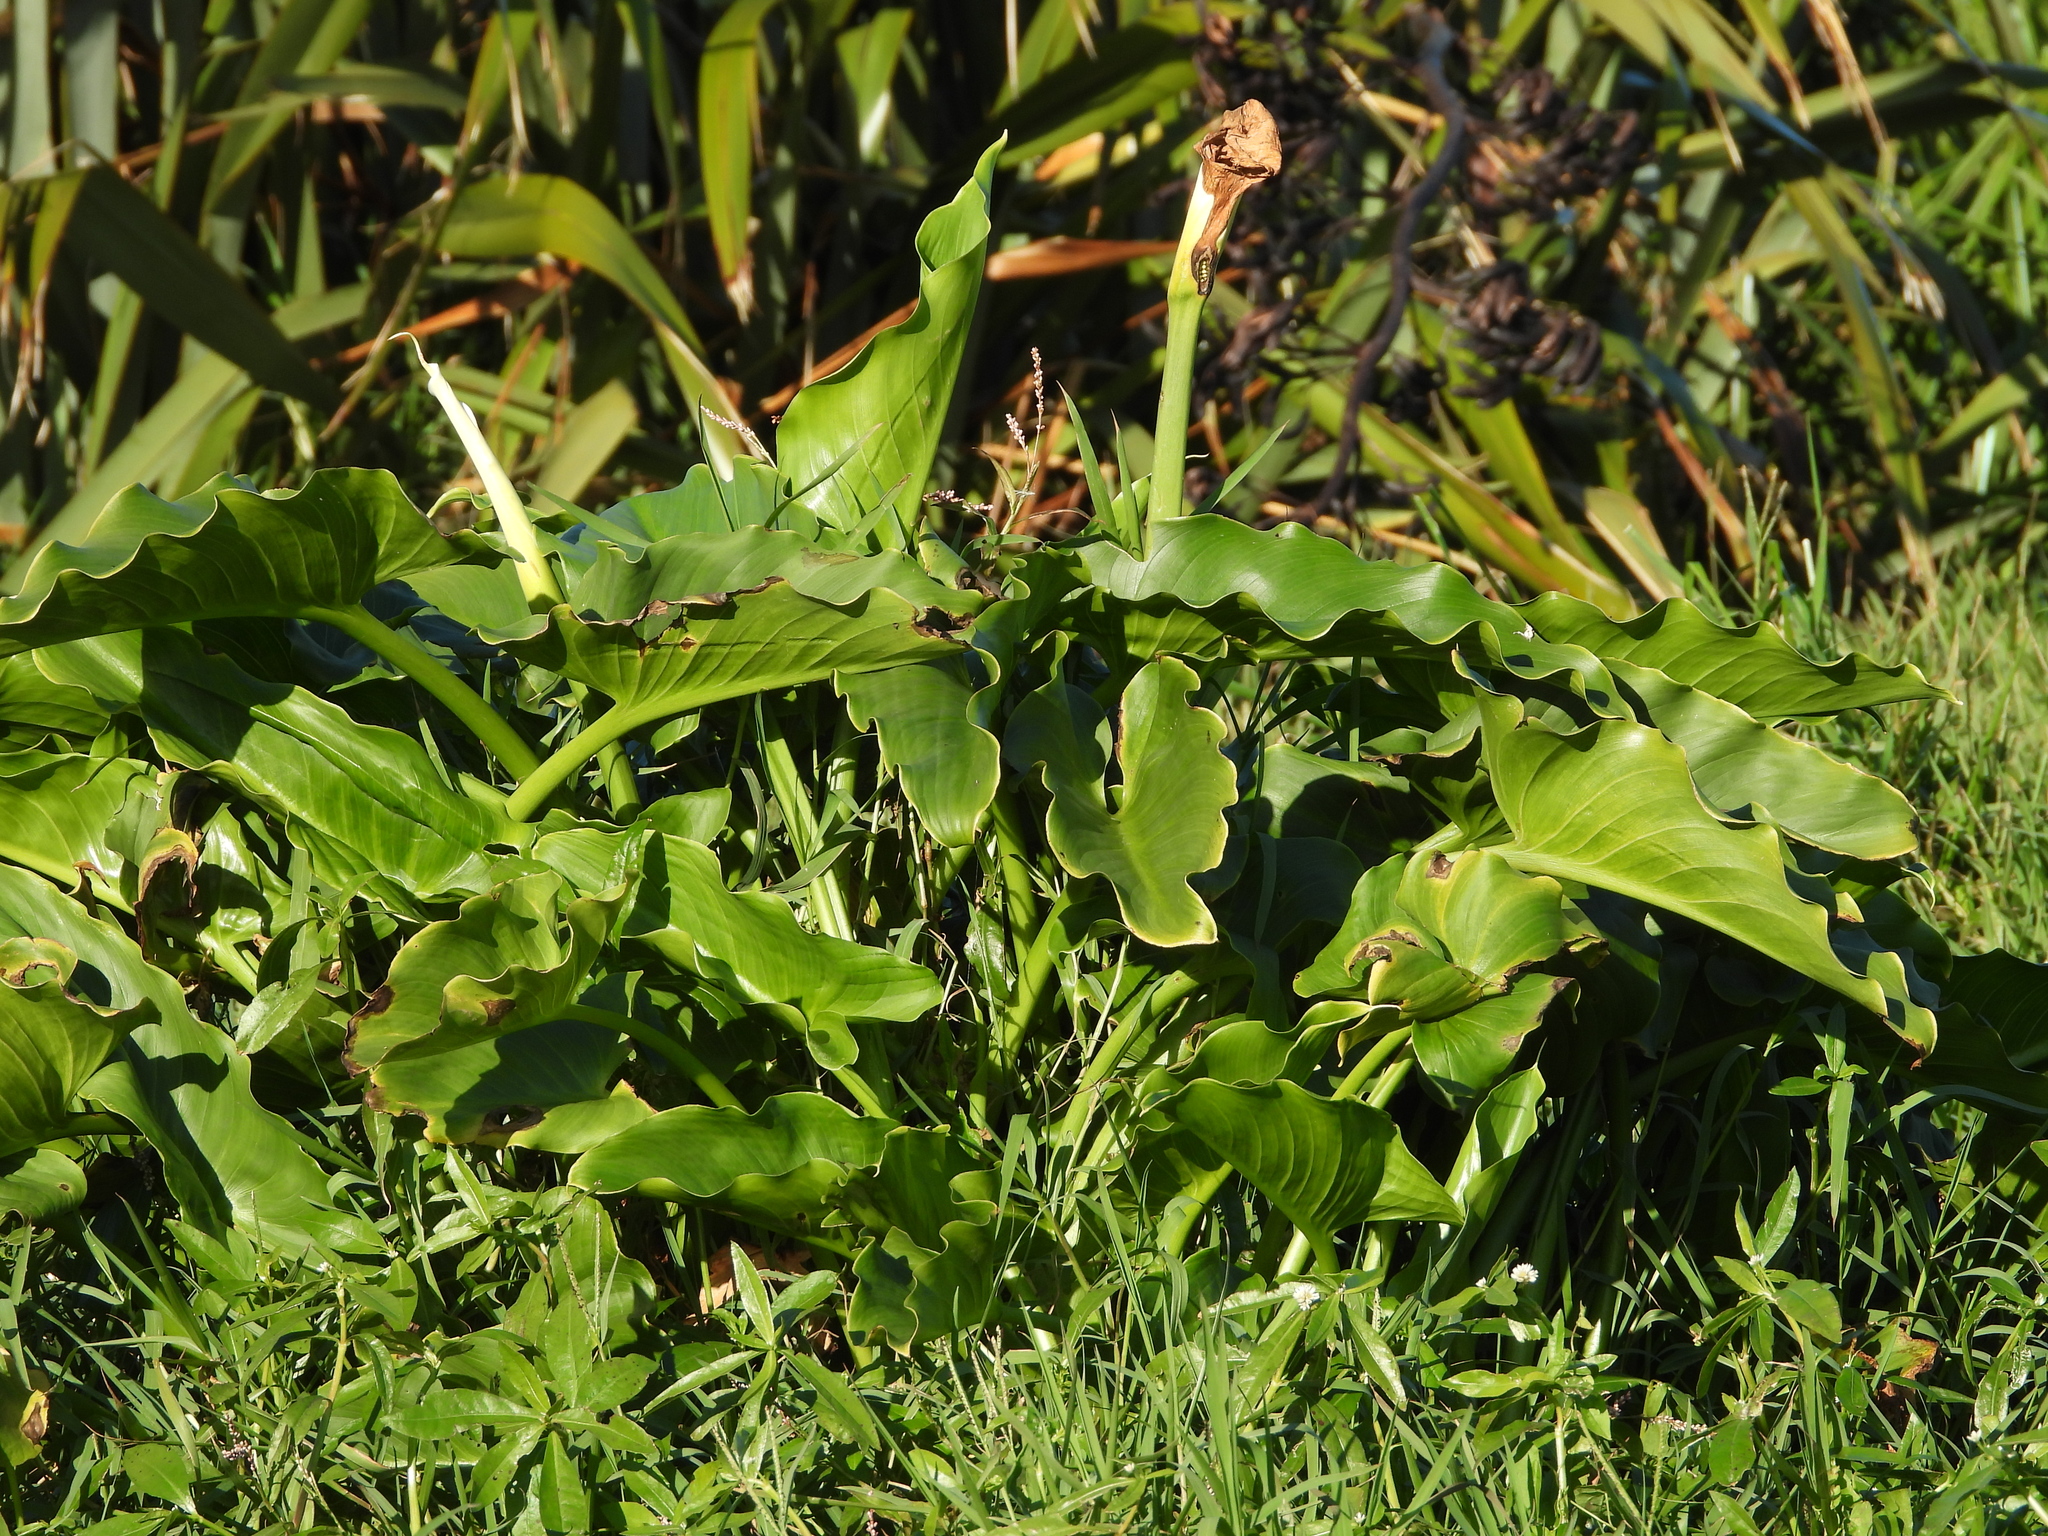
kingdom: Plantae
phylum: Tracheophyta
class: Liliopsida
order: Alismatales
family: Araceae
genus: Zantedeschia
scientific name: Zantedeschia aethiopica
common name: Altar-lily
